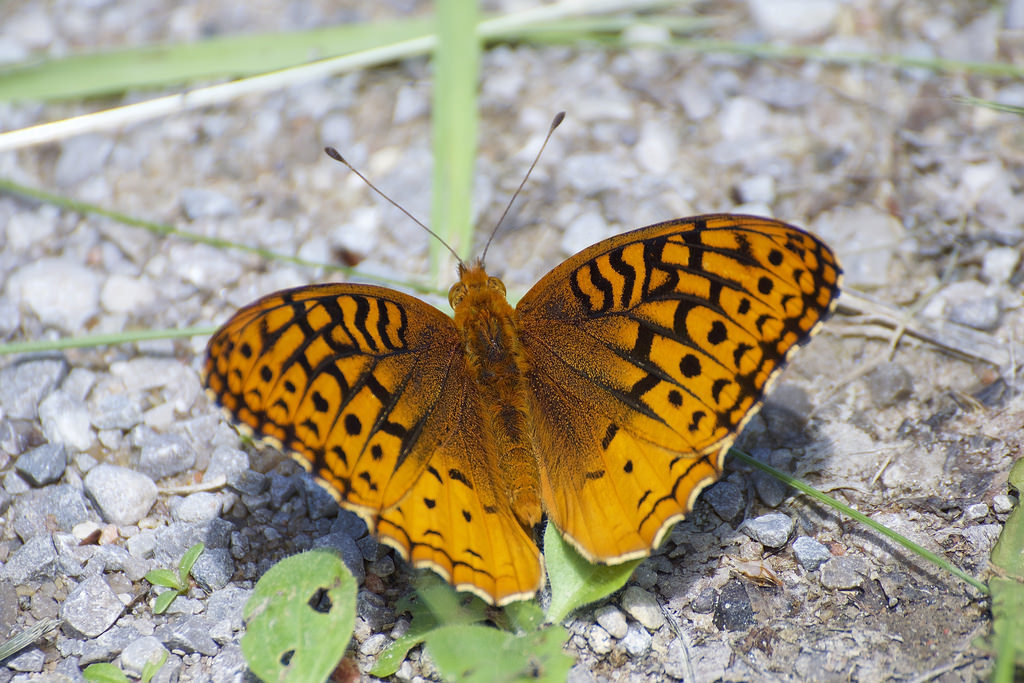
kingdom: Animalia
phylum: Arthropoda
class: Insecta
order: Lepidoptera
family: Nymphalidae
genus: Speyeria
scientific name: Speyeria cybele
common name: Great spangled fritillary
